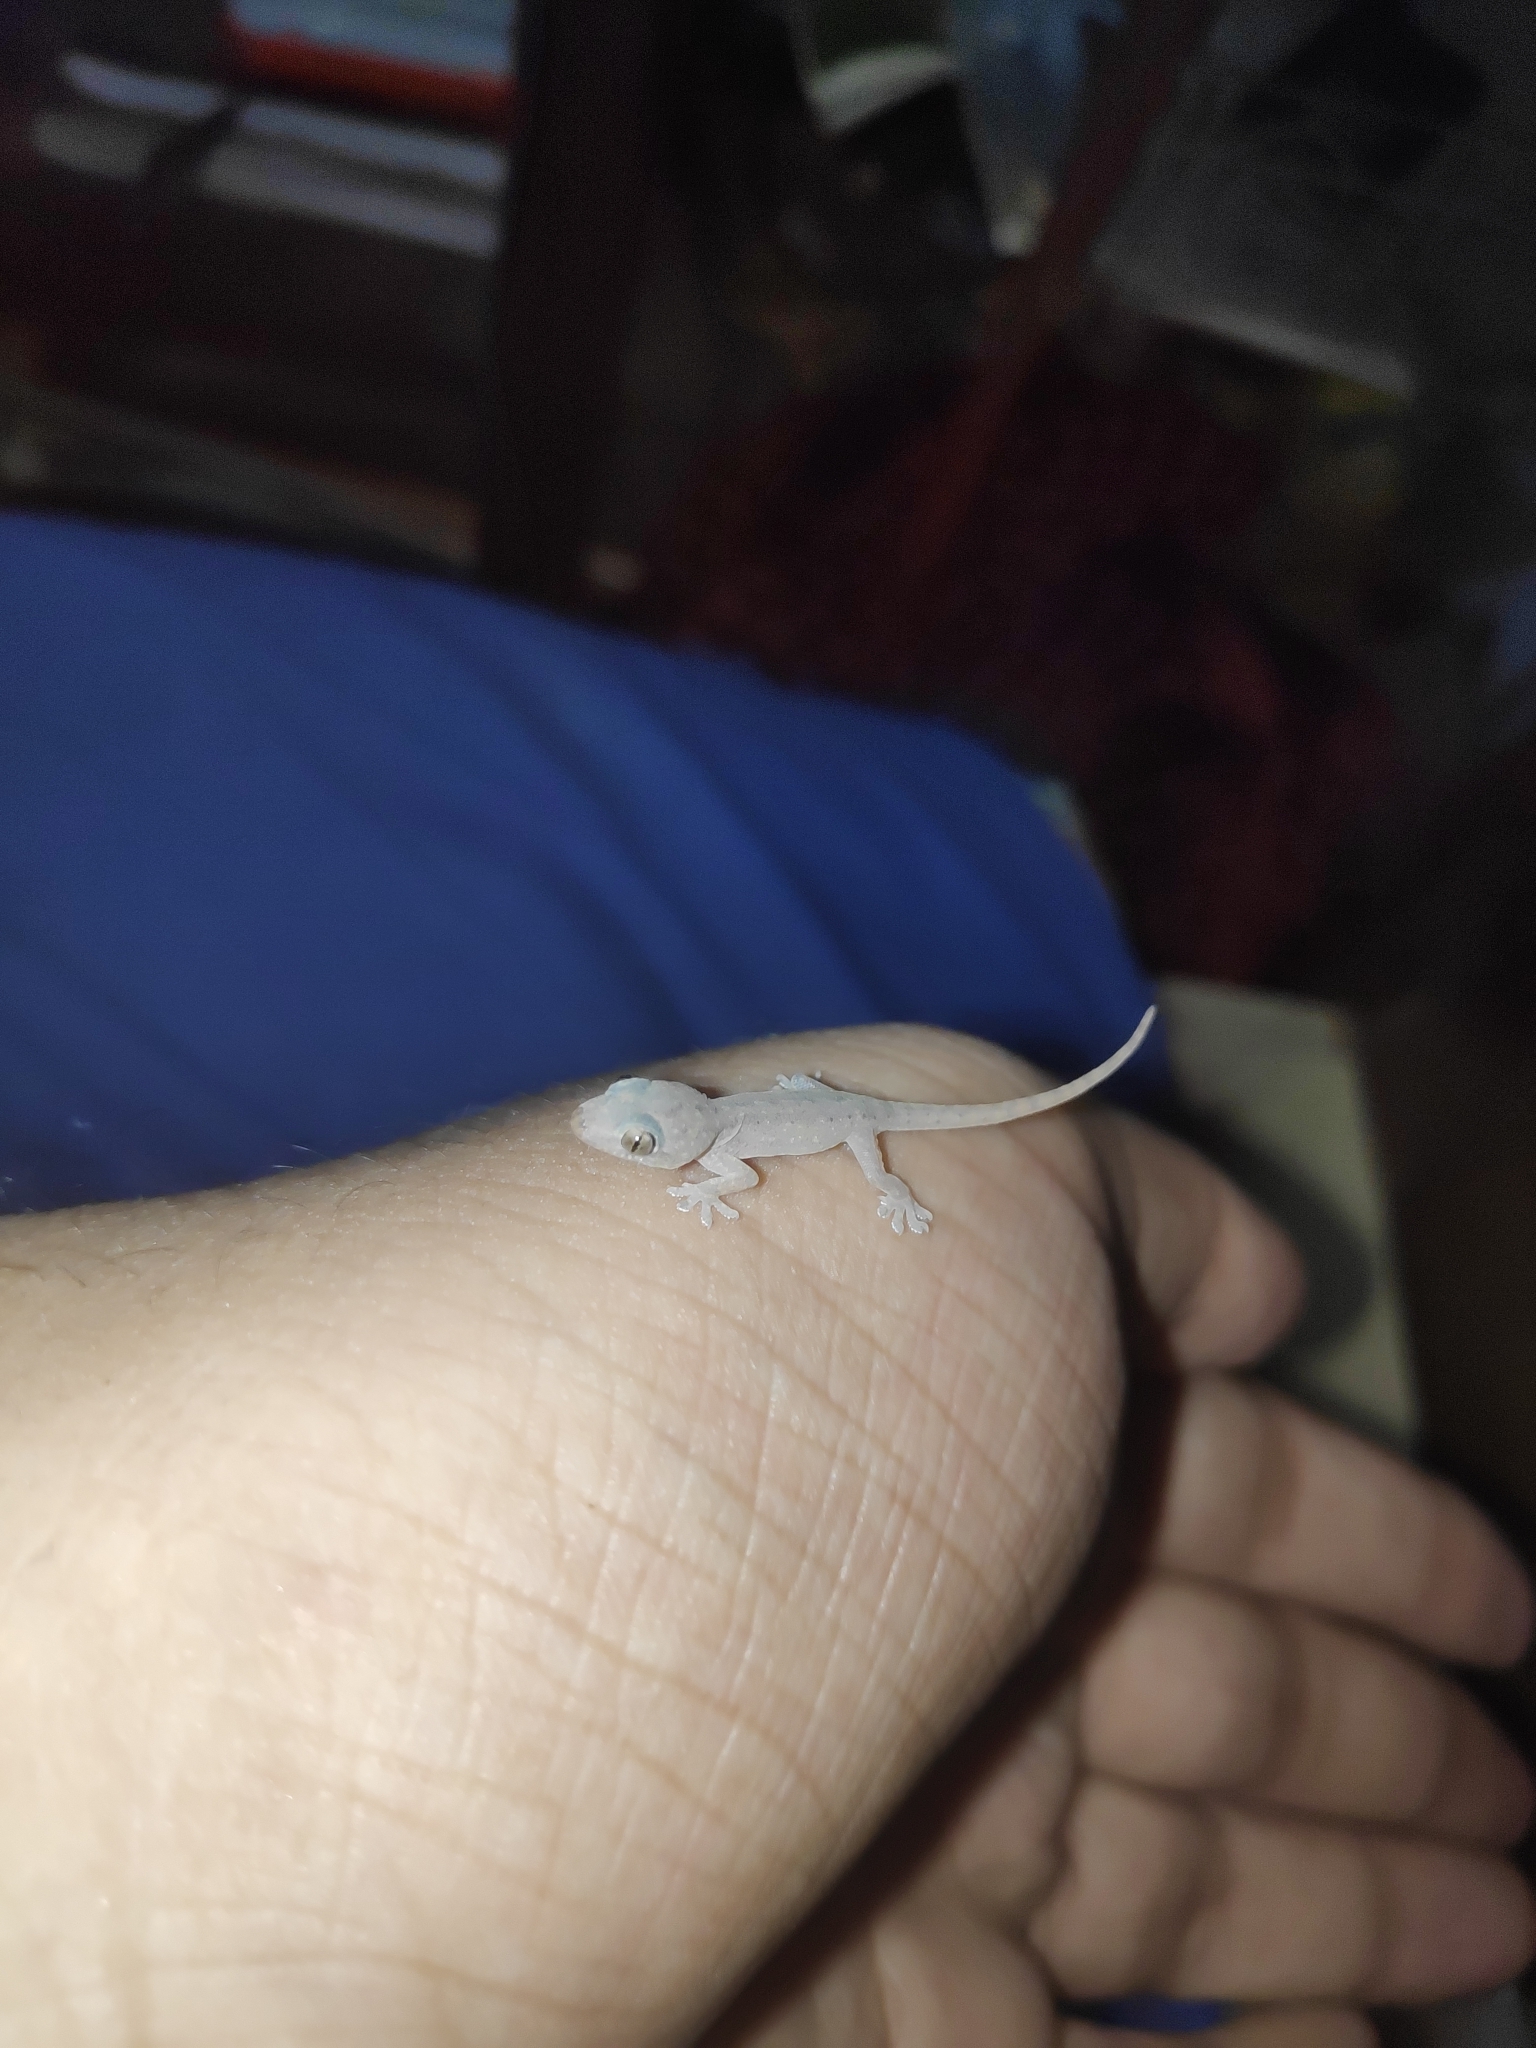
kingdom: Animalia
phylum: Chordata
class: Squamata
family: Gekkonidae
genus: Hemidactylus
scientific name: Hemidactylus frenatus
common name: Common house gecko
